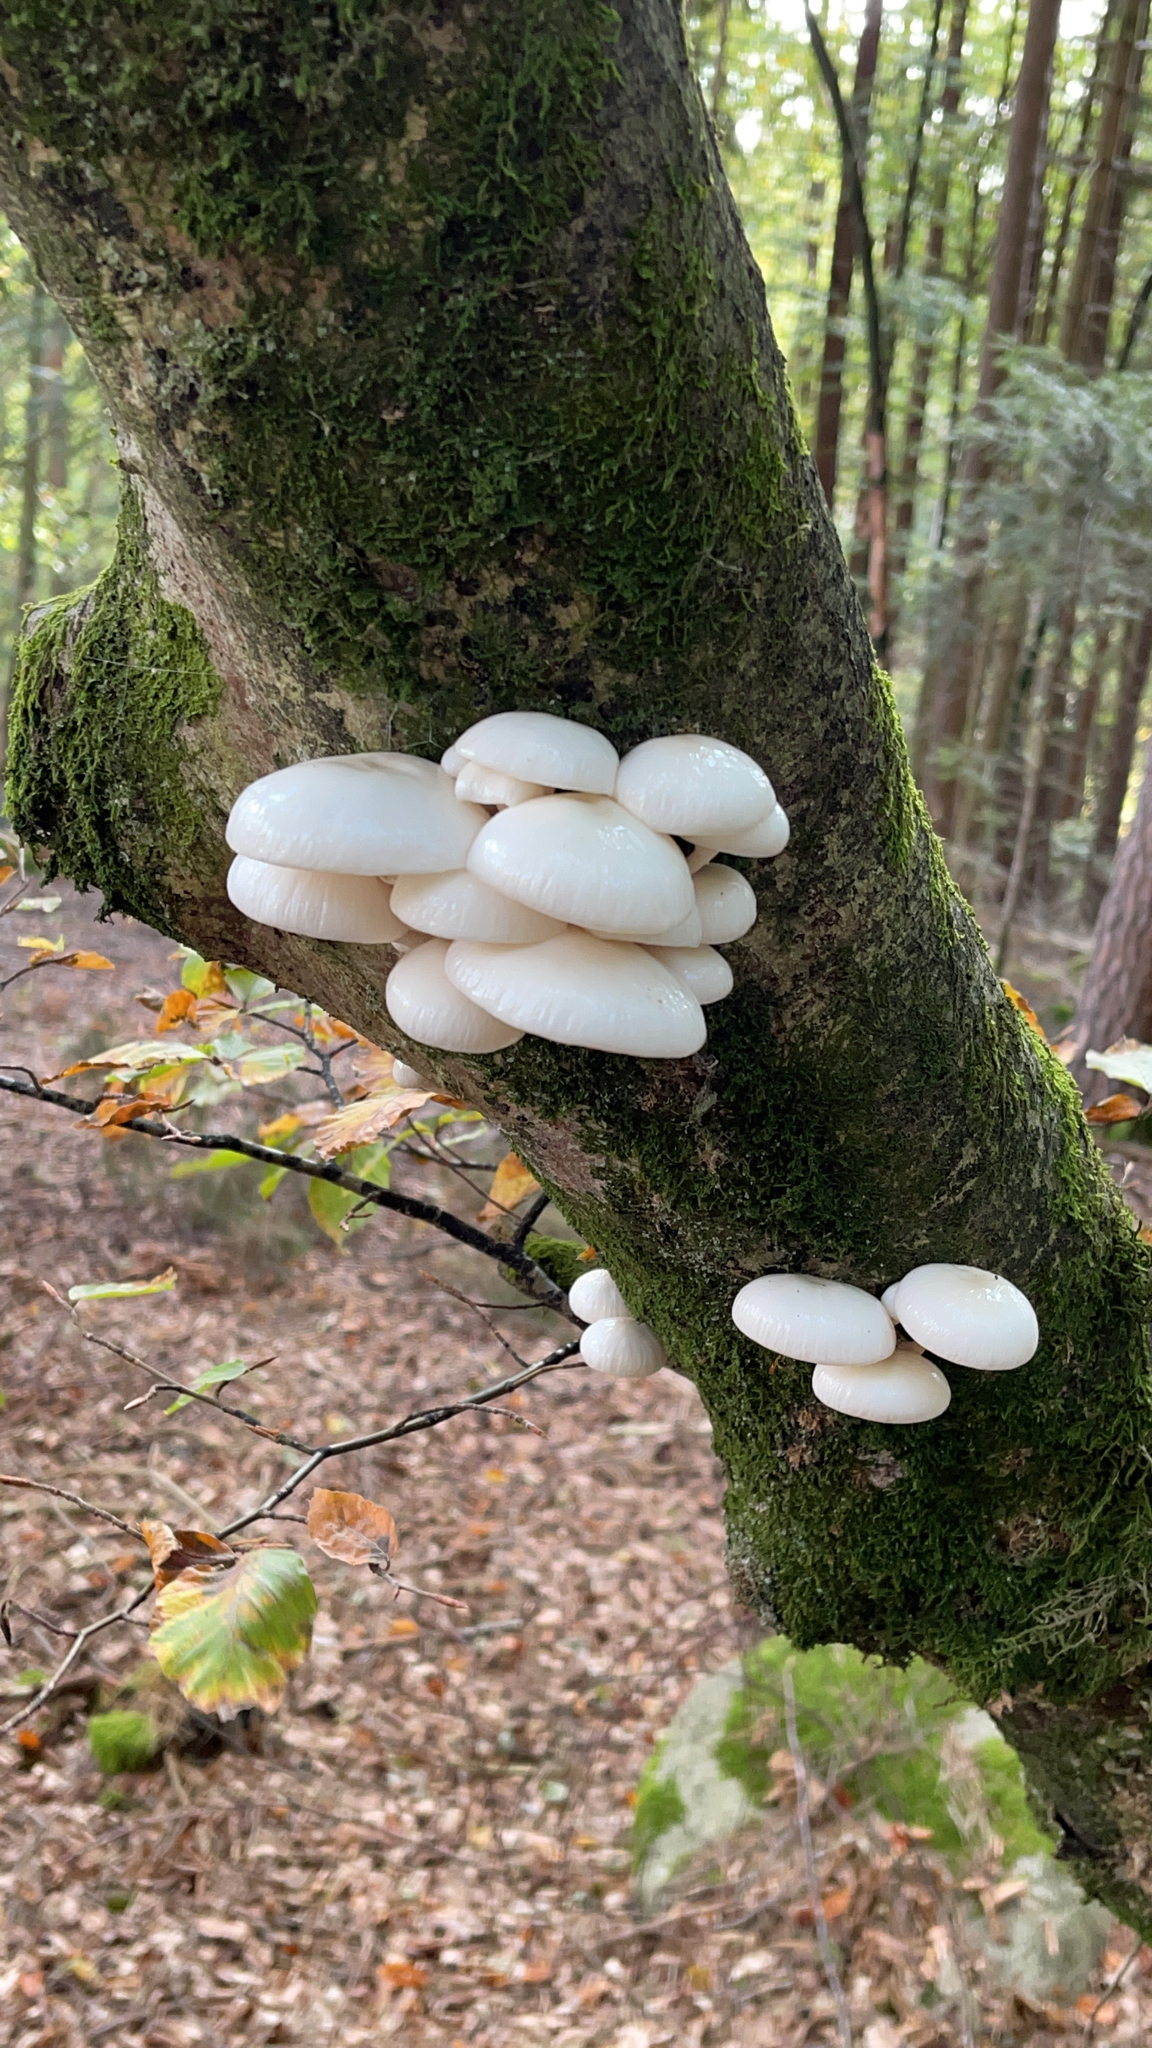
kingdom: Fungi
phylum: Basidiomycota
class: Agaricomycetes
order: Agaricales
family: Physalacriaceae
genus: Mucidula
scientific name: Mucidula mucida
